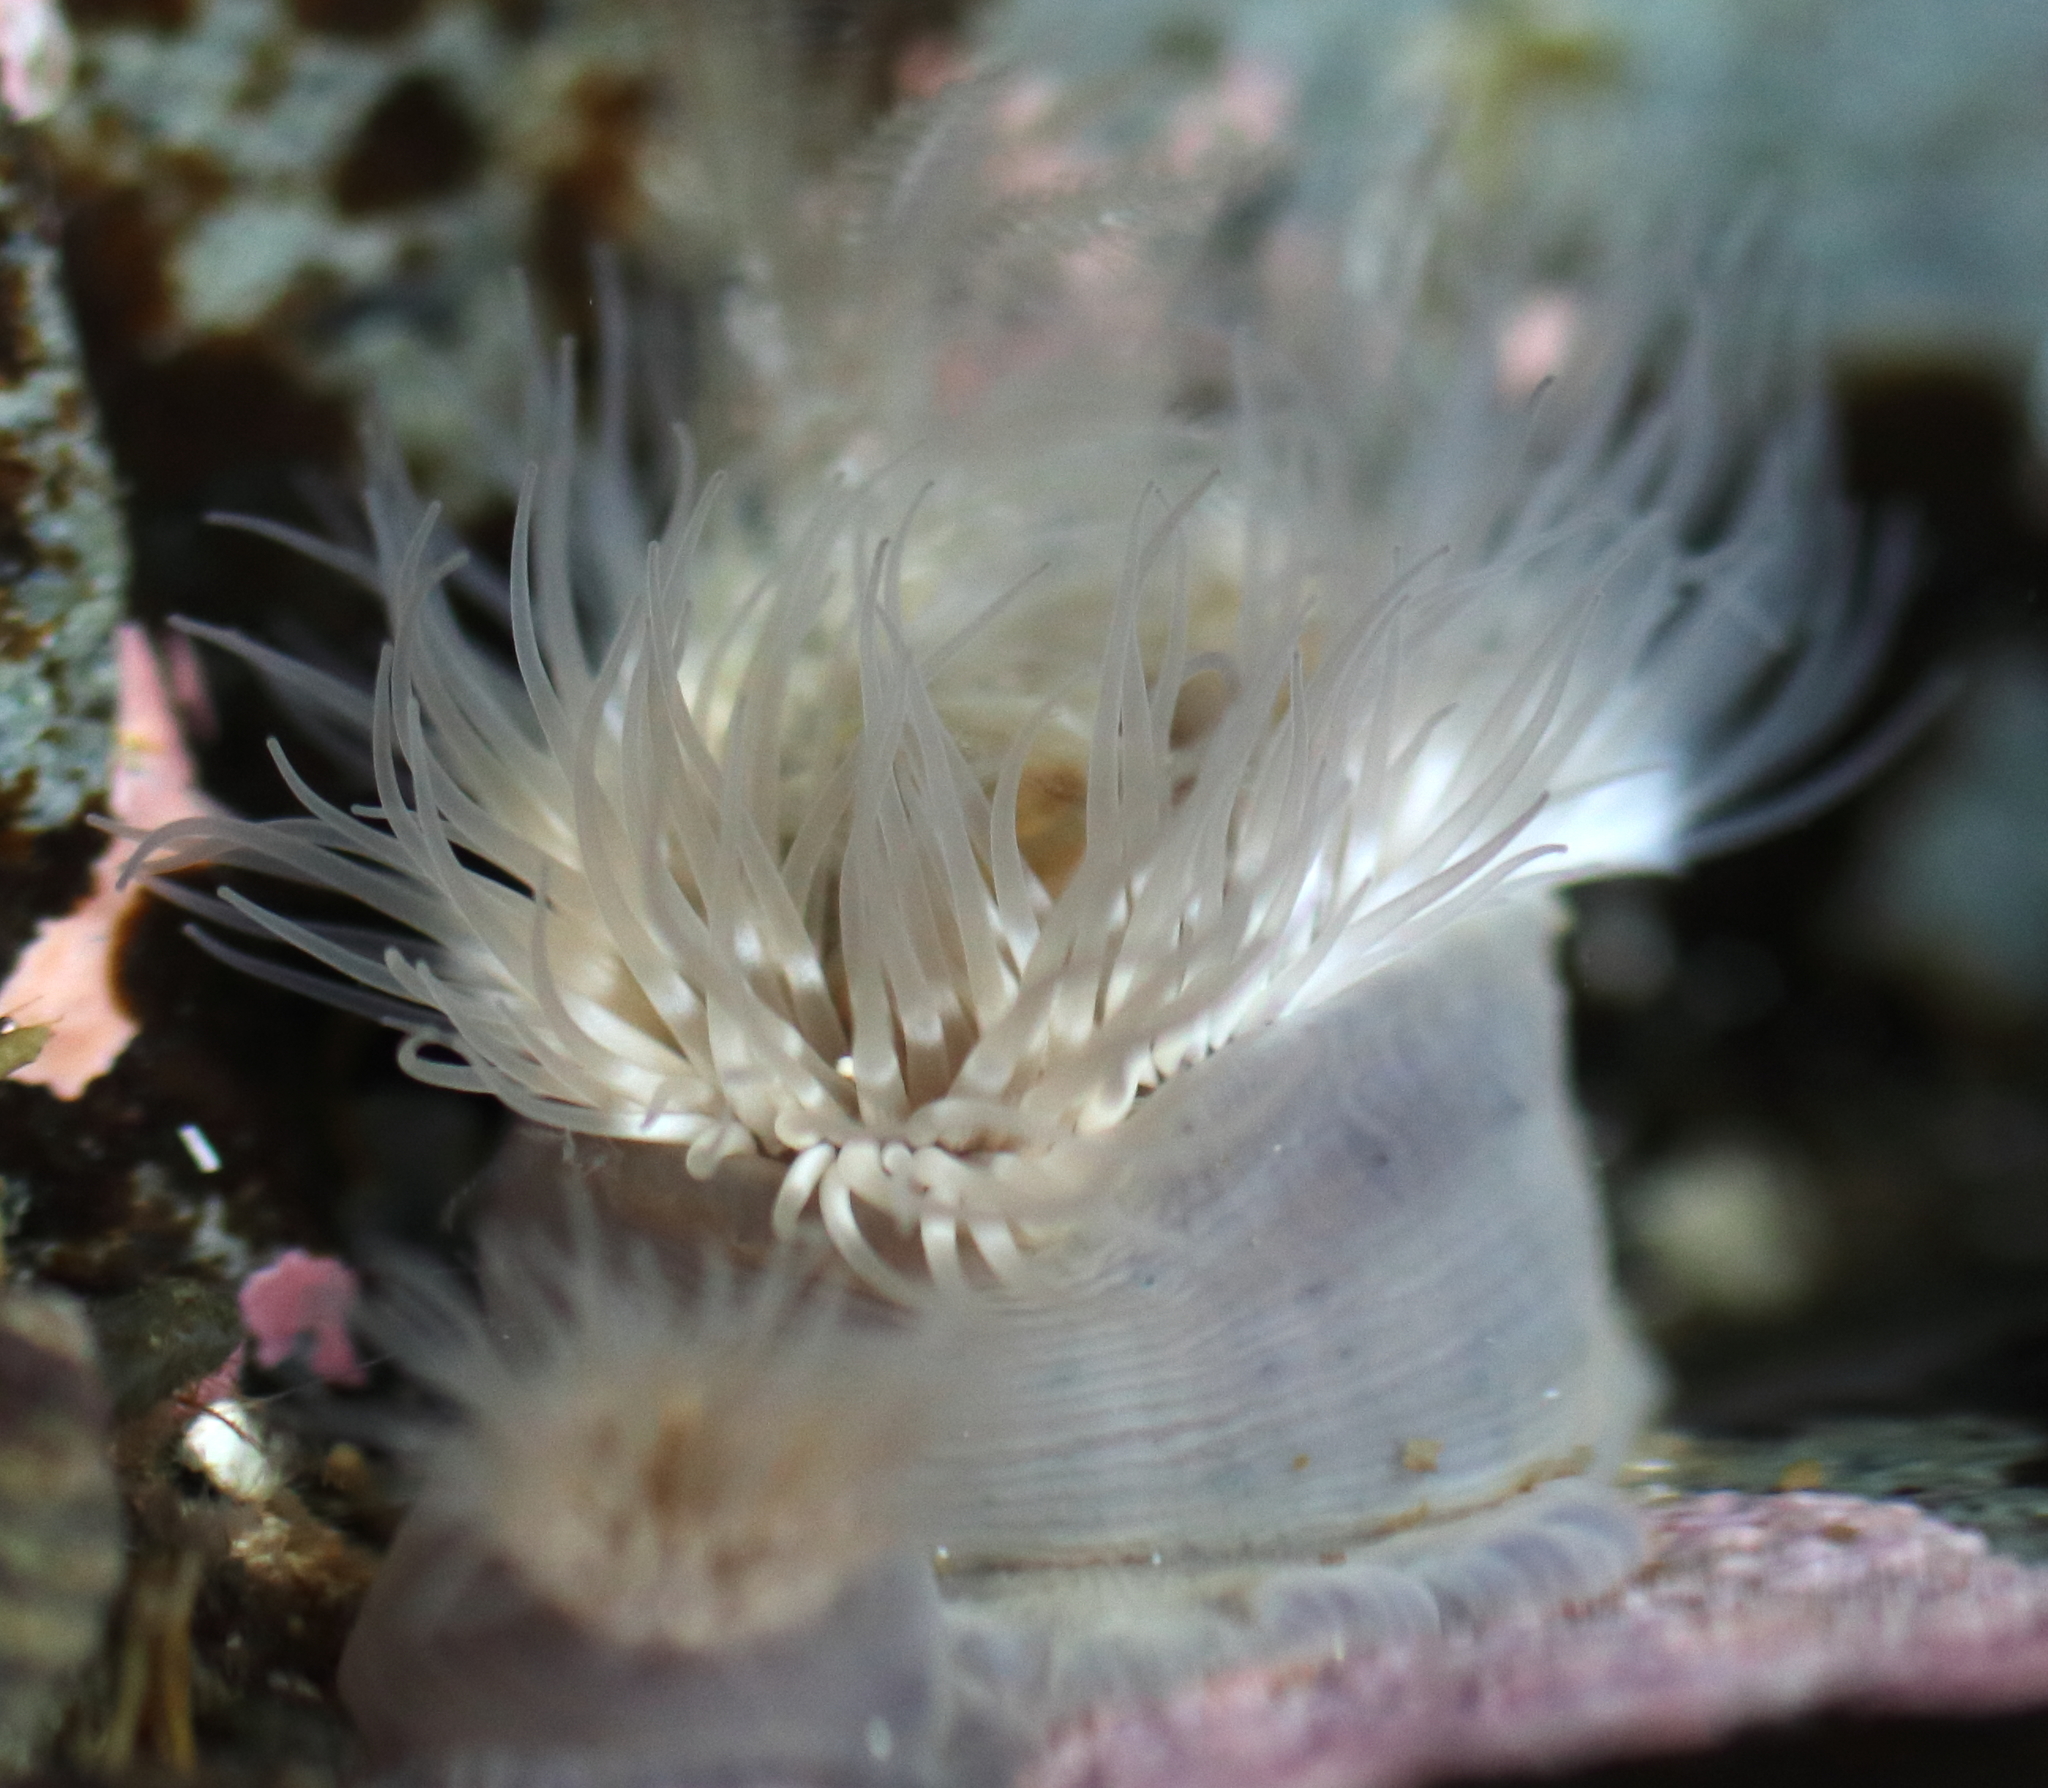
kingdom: Animalia
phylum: Cnidaria
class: Anthozoa
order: Actiniaria
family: Metridiidae
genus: Metridium
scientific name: Metridium senile
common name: Clonal plumose anemone
